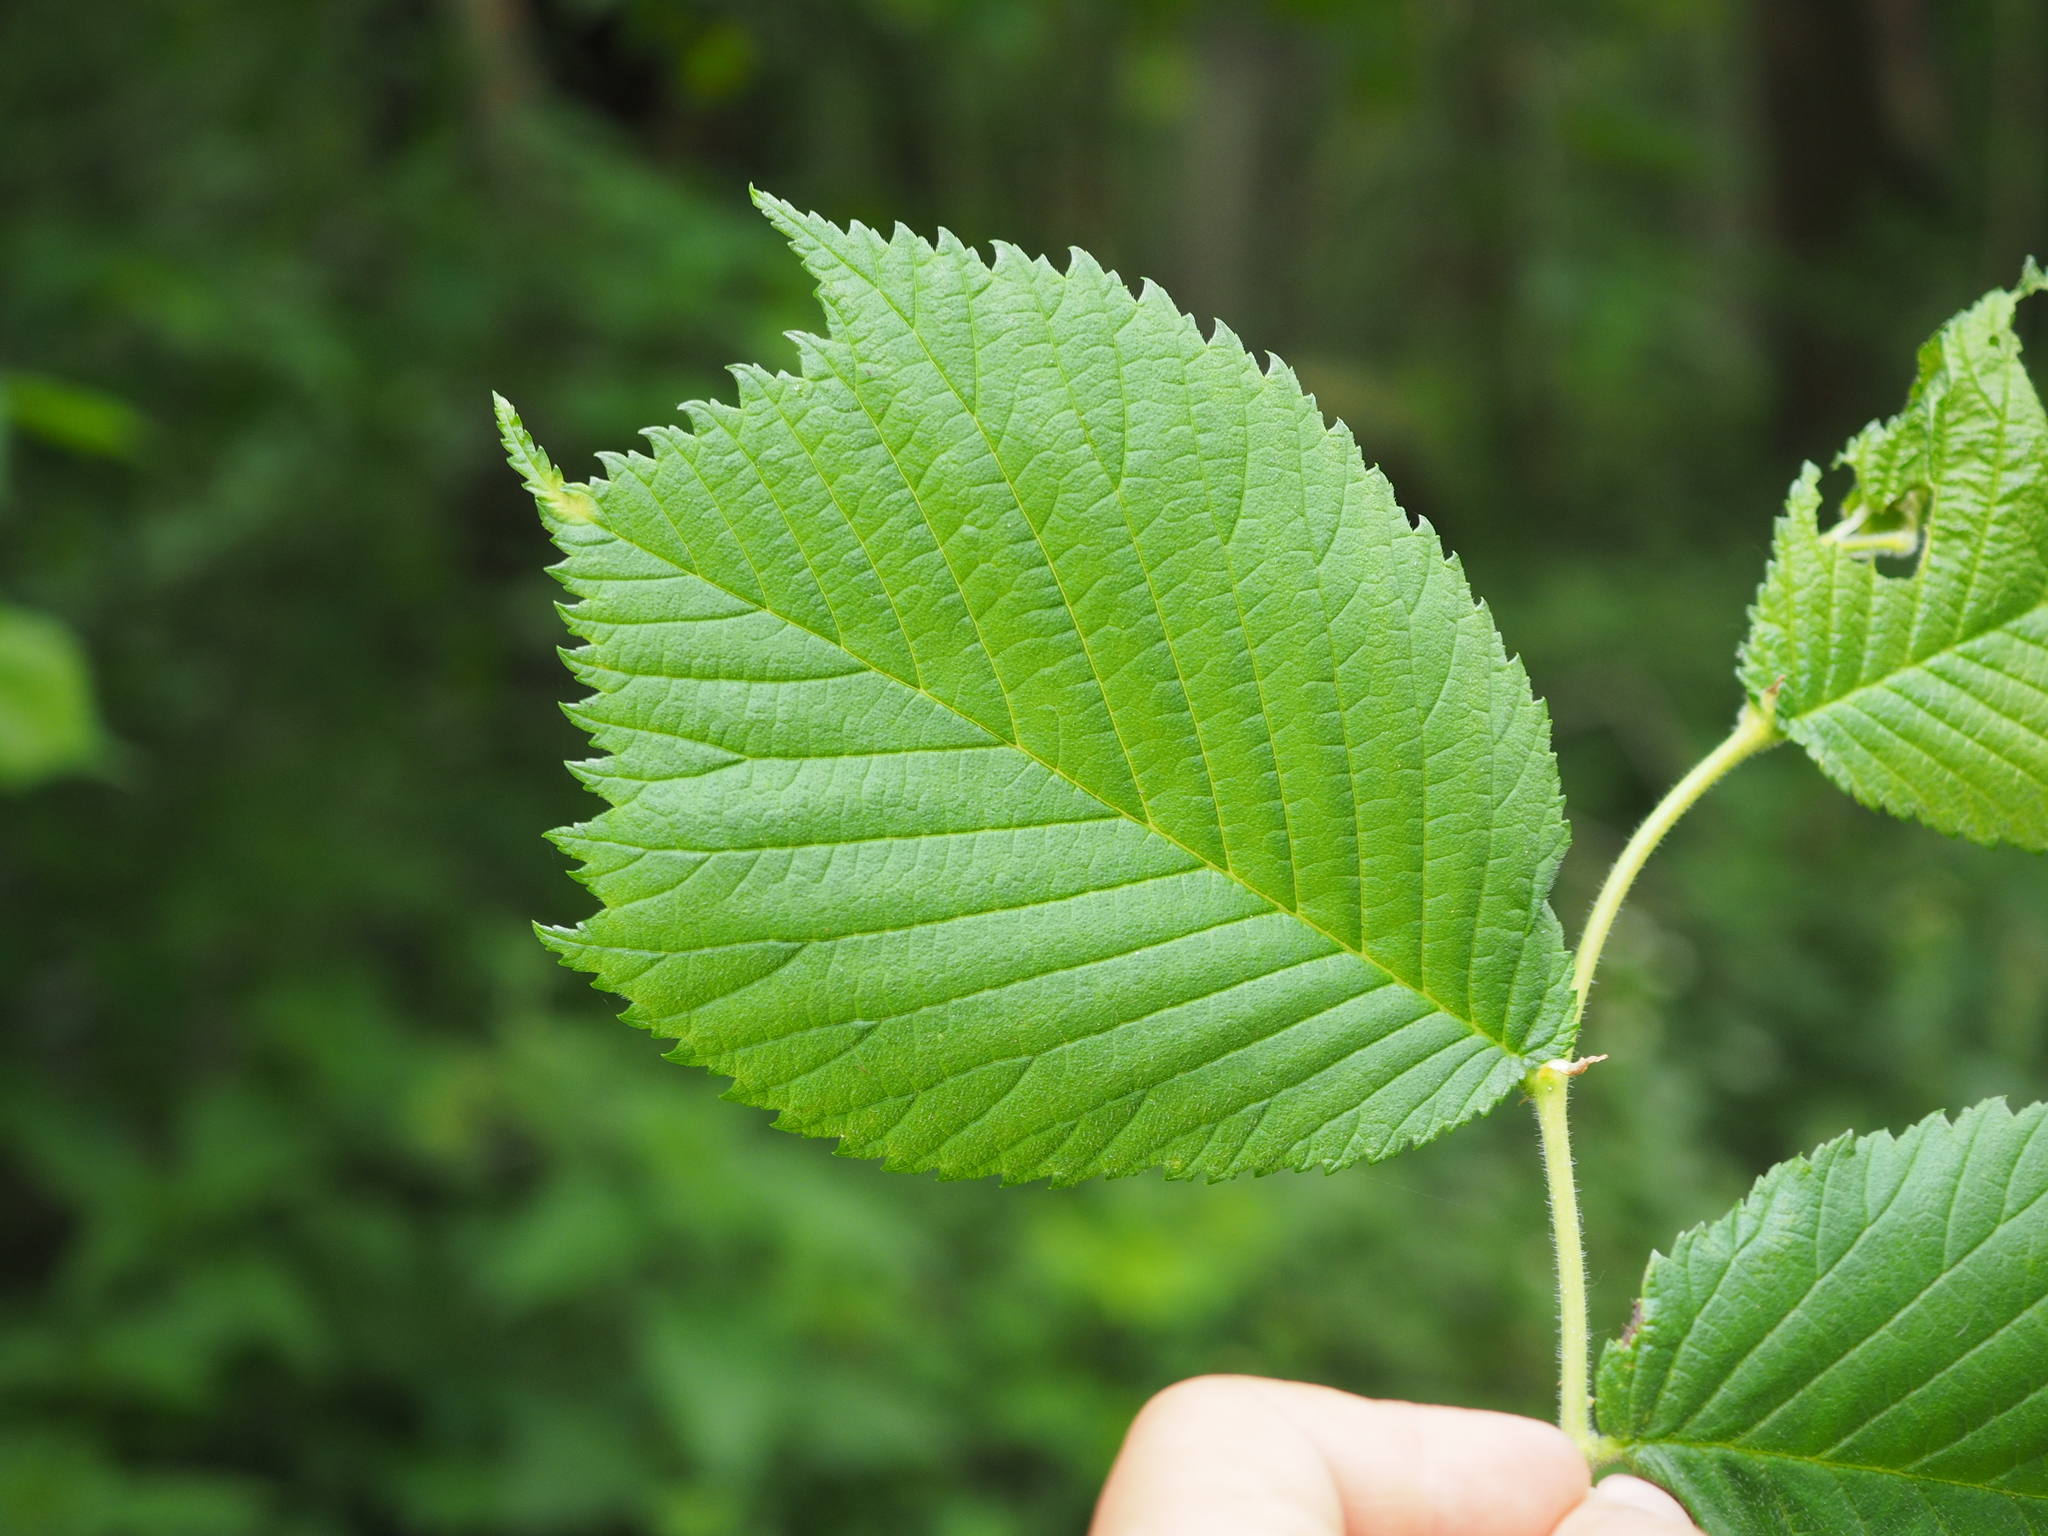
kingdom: Plantae
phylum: Tracheophyta
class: Magnoliopsida
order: Rosales
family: Ulmaceae
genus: Ulmus
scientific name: Ulmus glabra
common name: Wych elm
